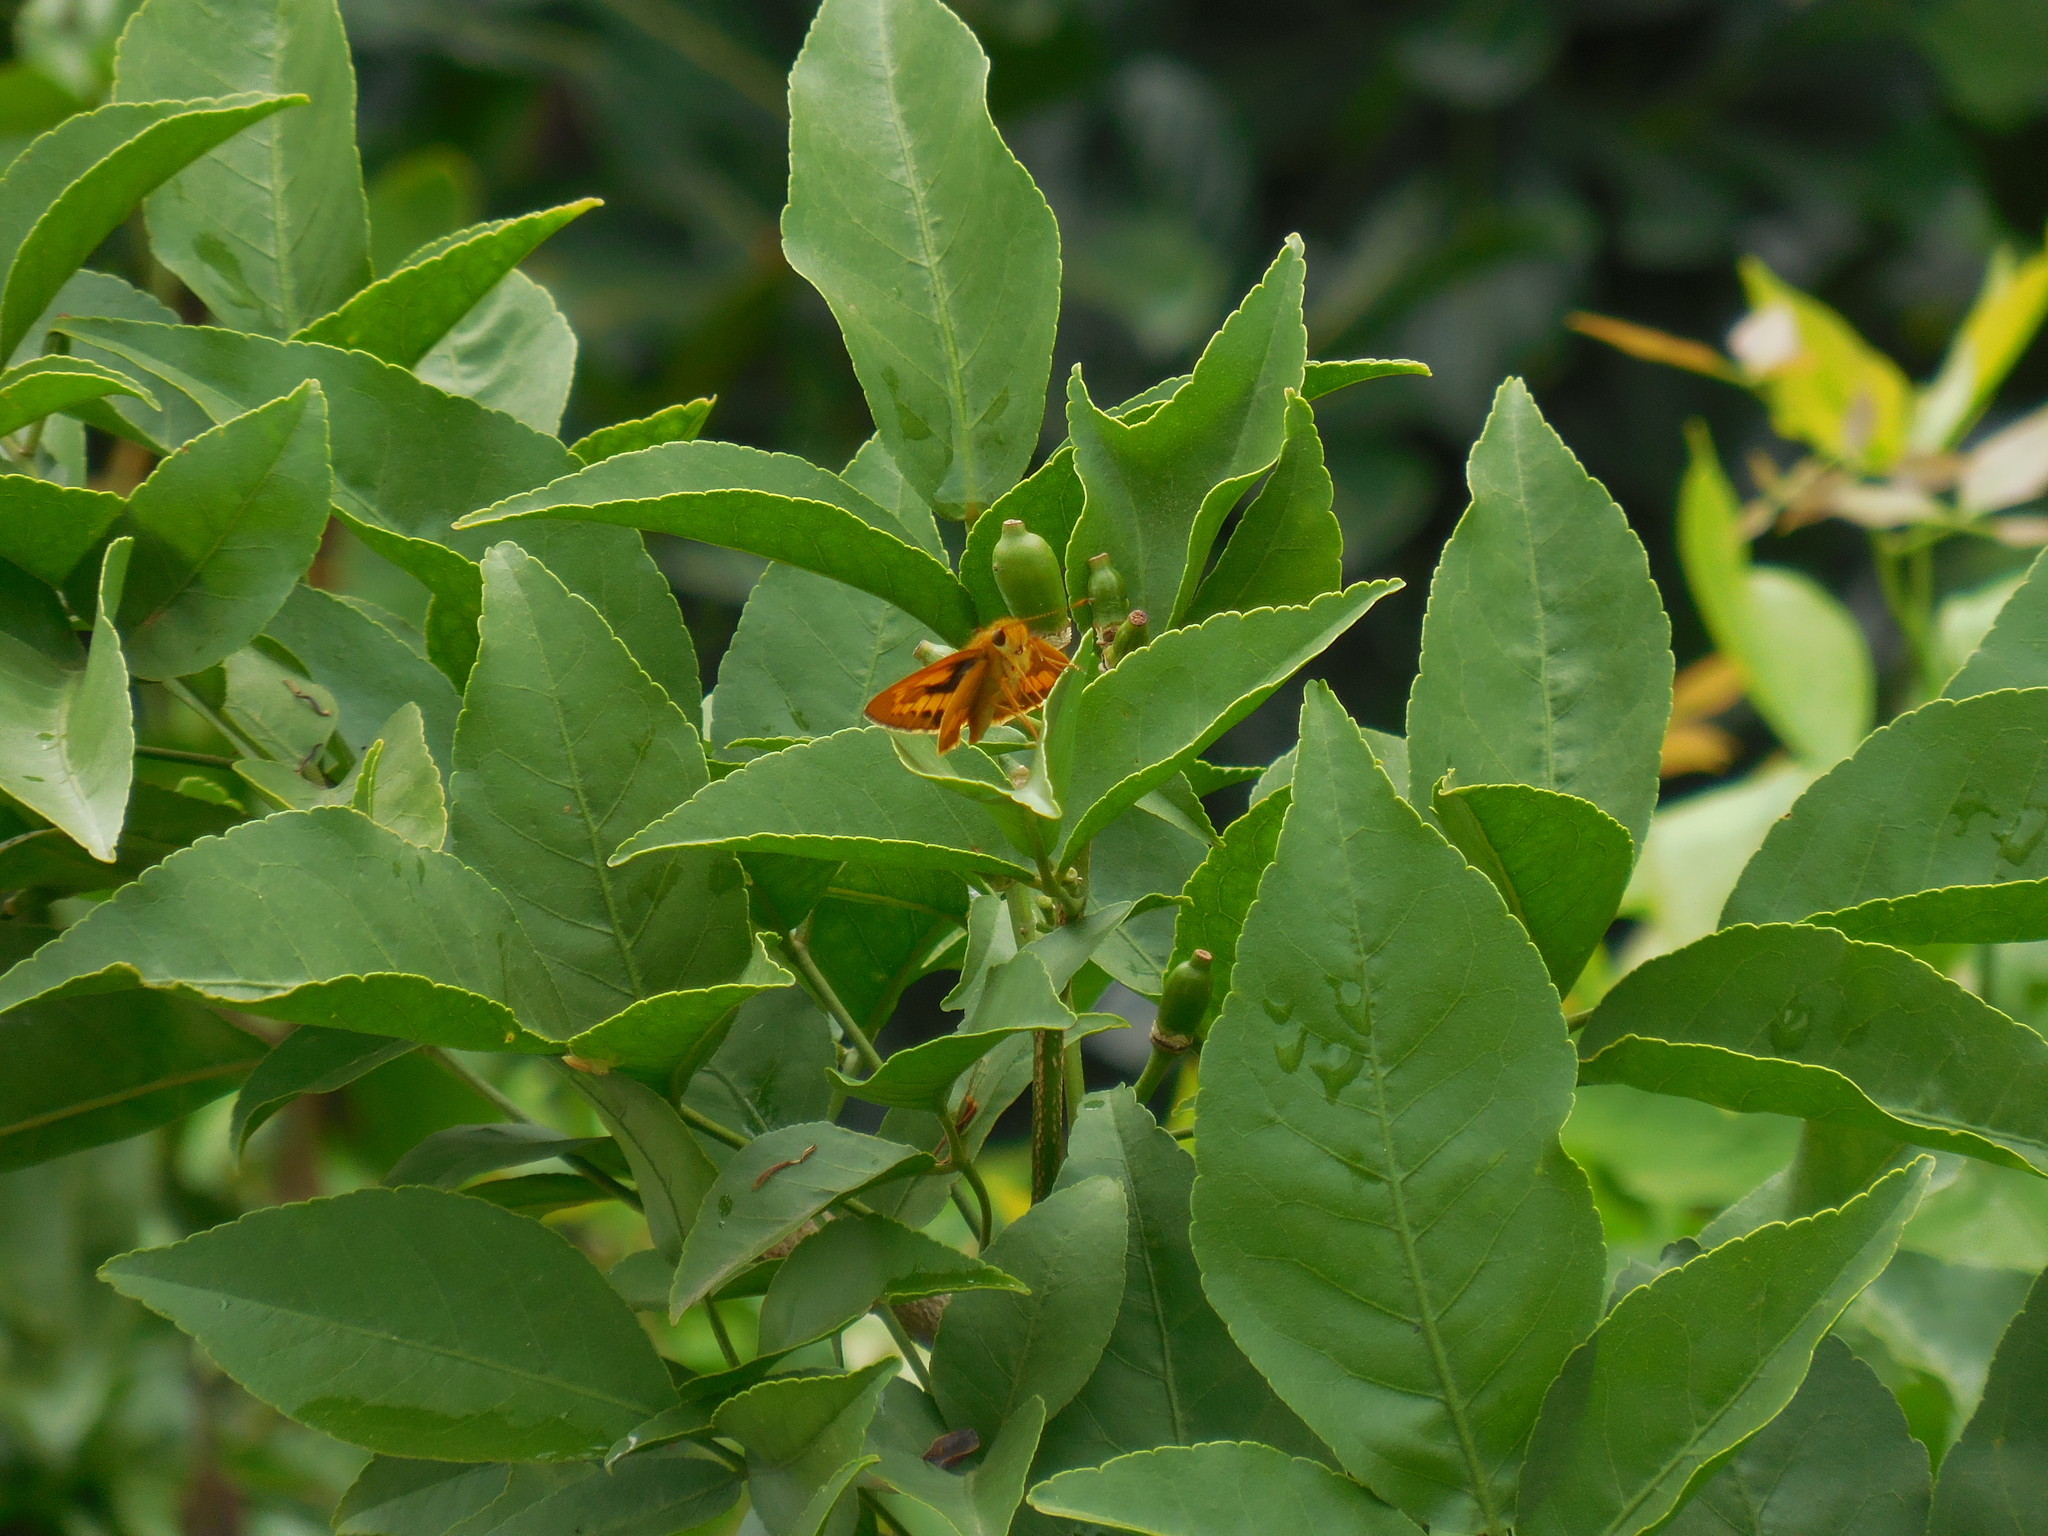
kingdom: Animalia
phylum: Arthropoda
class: Insecta
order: Lepidoptera
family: Hesperiidae
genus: Potanthus
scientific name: Potanthus omaha
